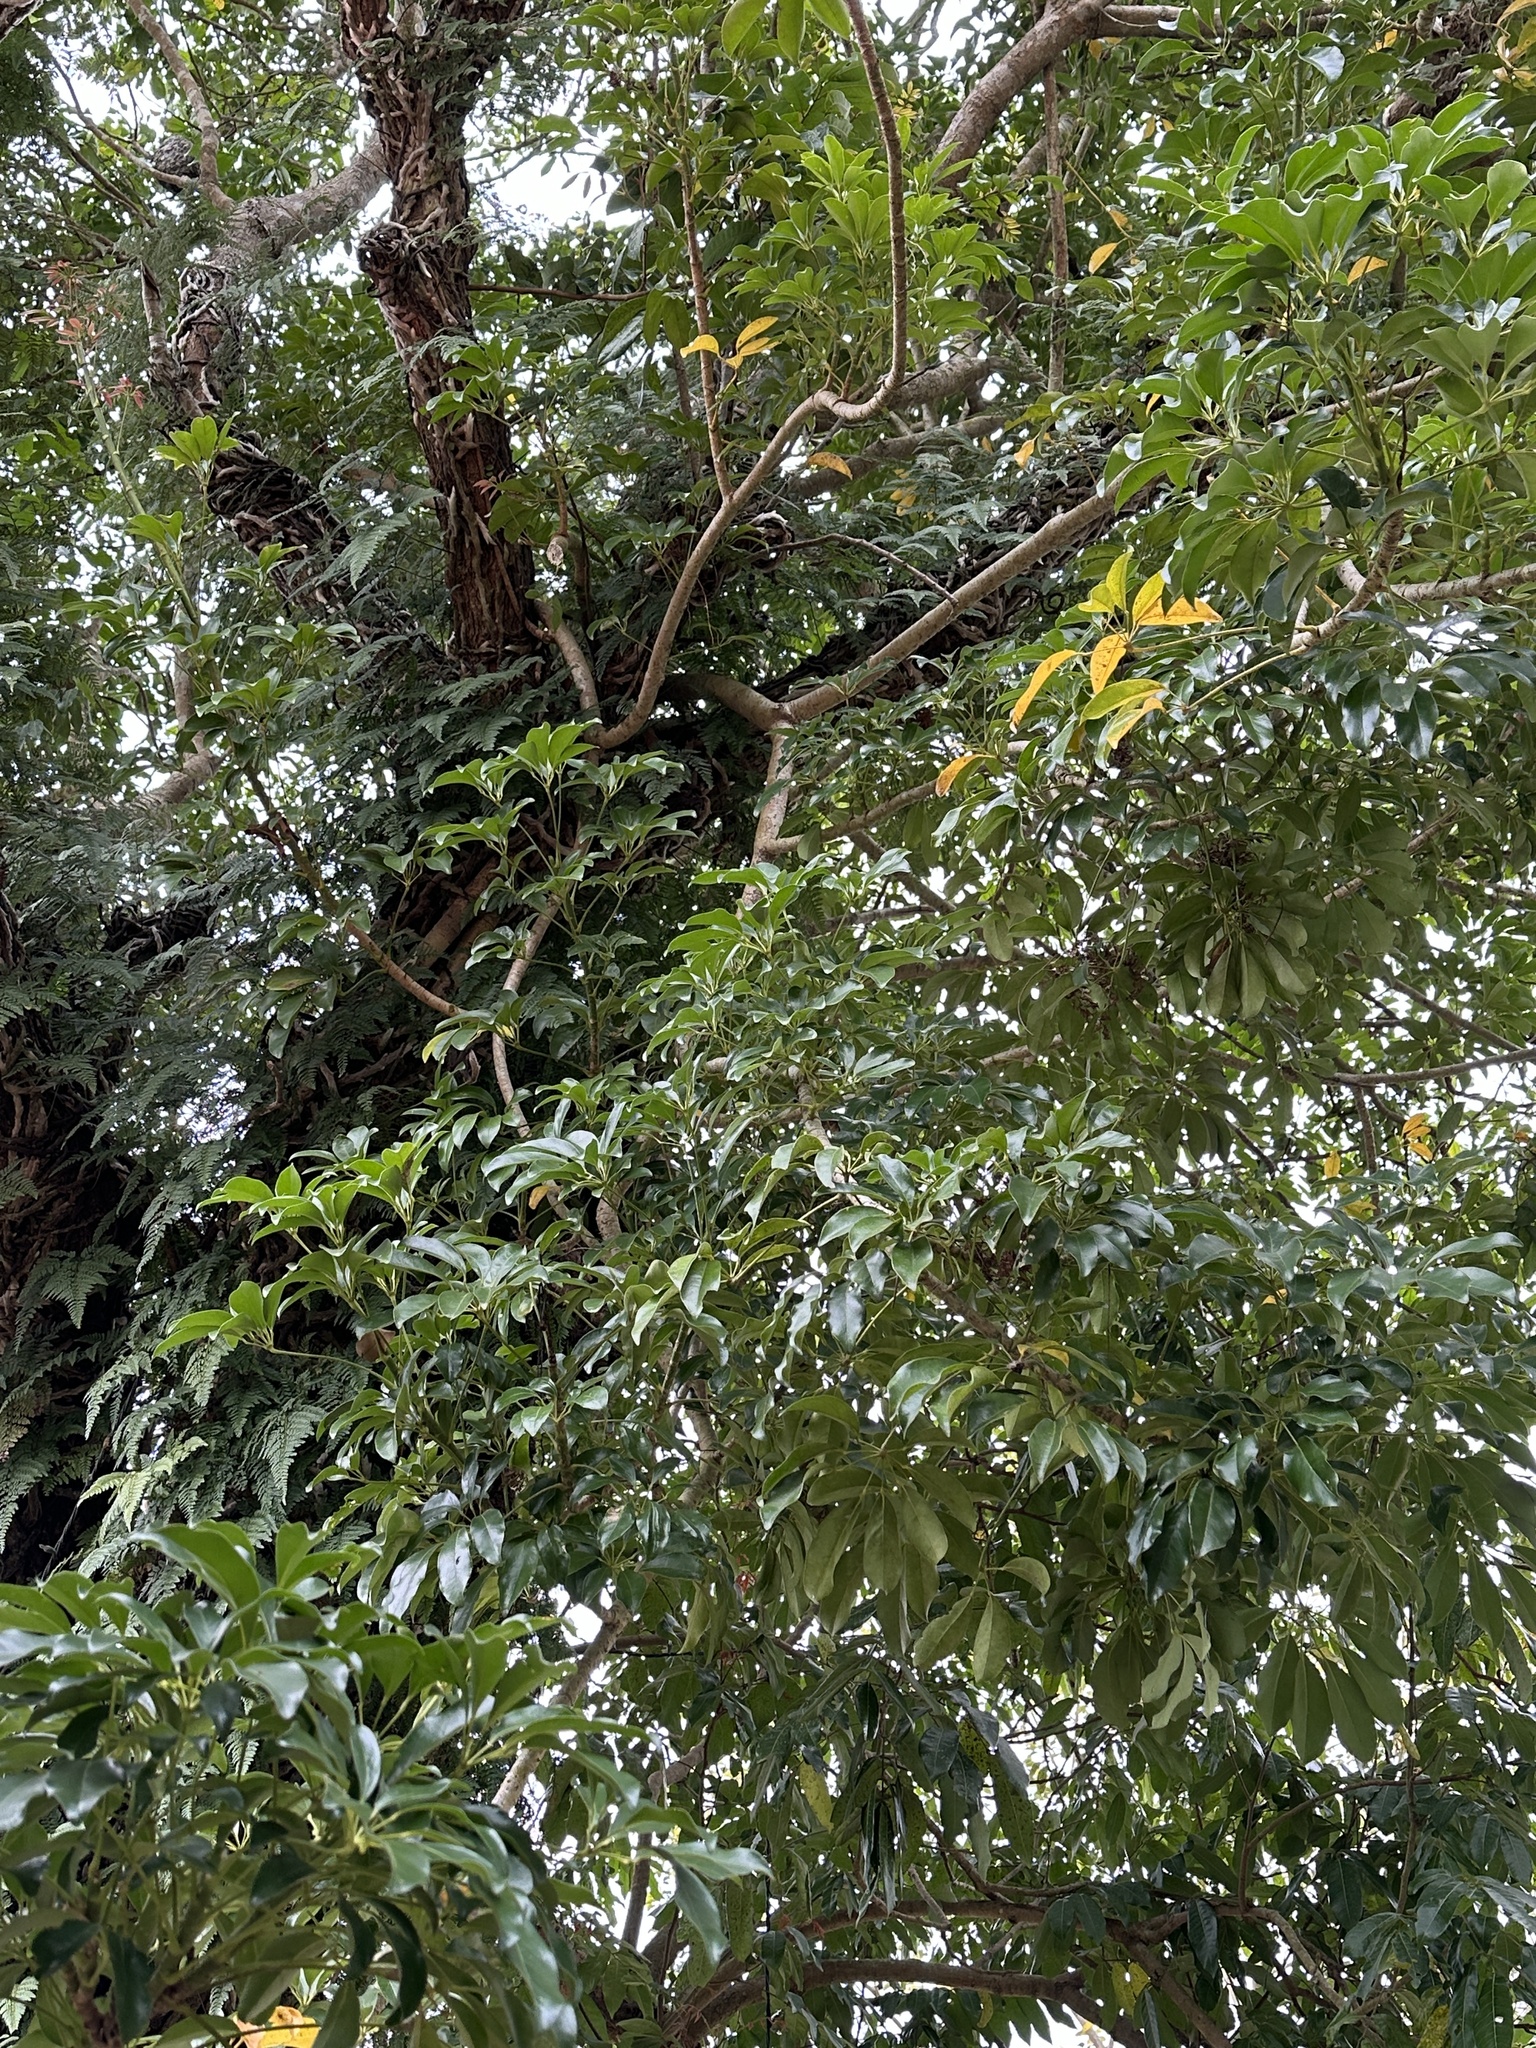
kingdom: Plantae
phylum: Tracheophyta
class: Magnoliopsida
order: Apiales
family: Araliaceae
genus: Heptapleurum
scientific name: Heptapleurum arboricola
